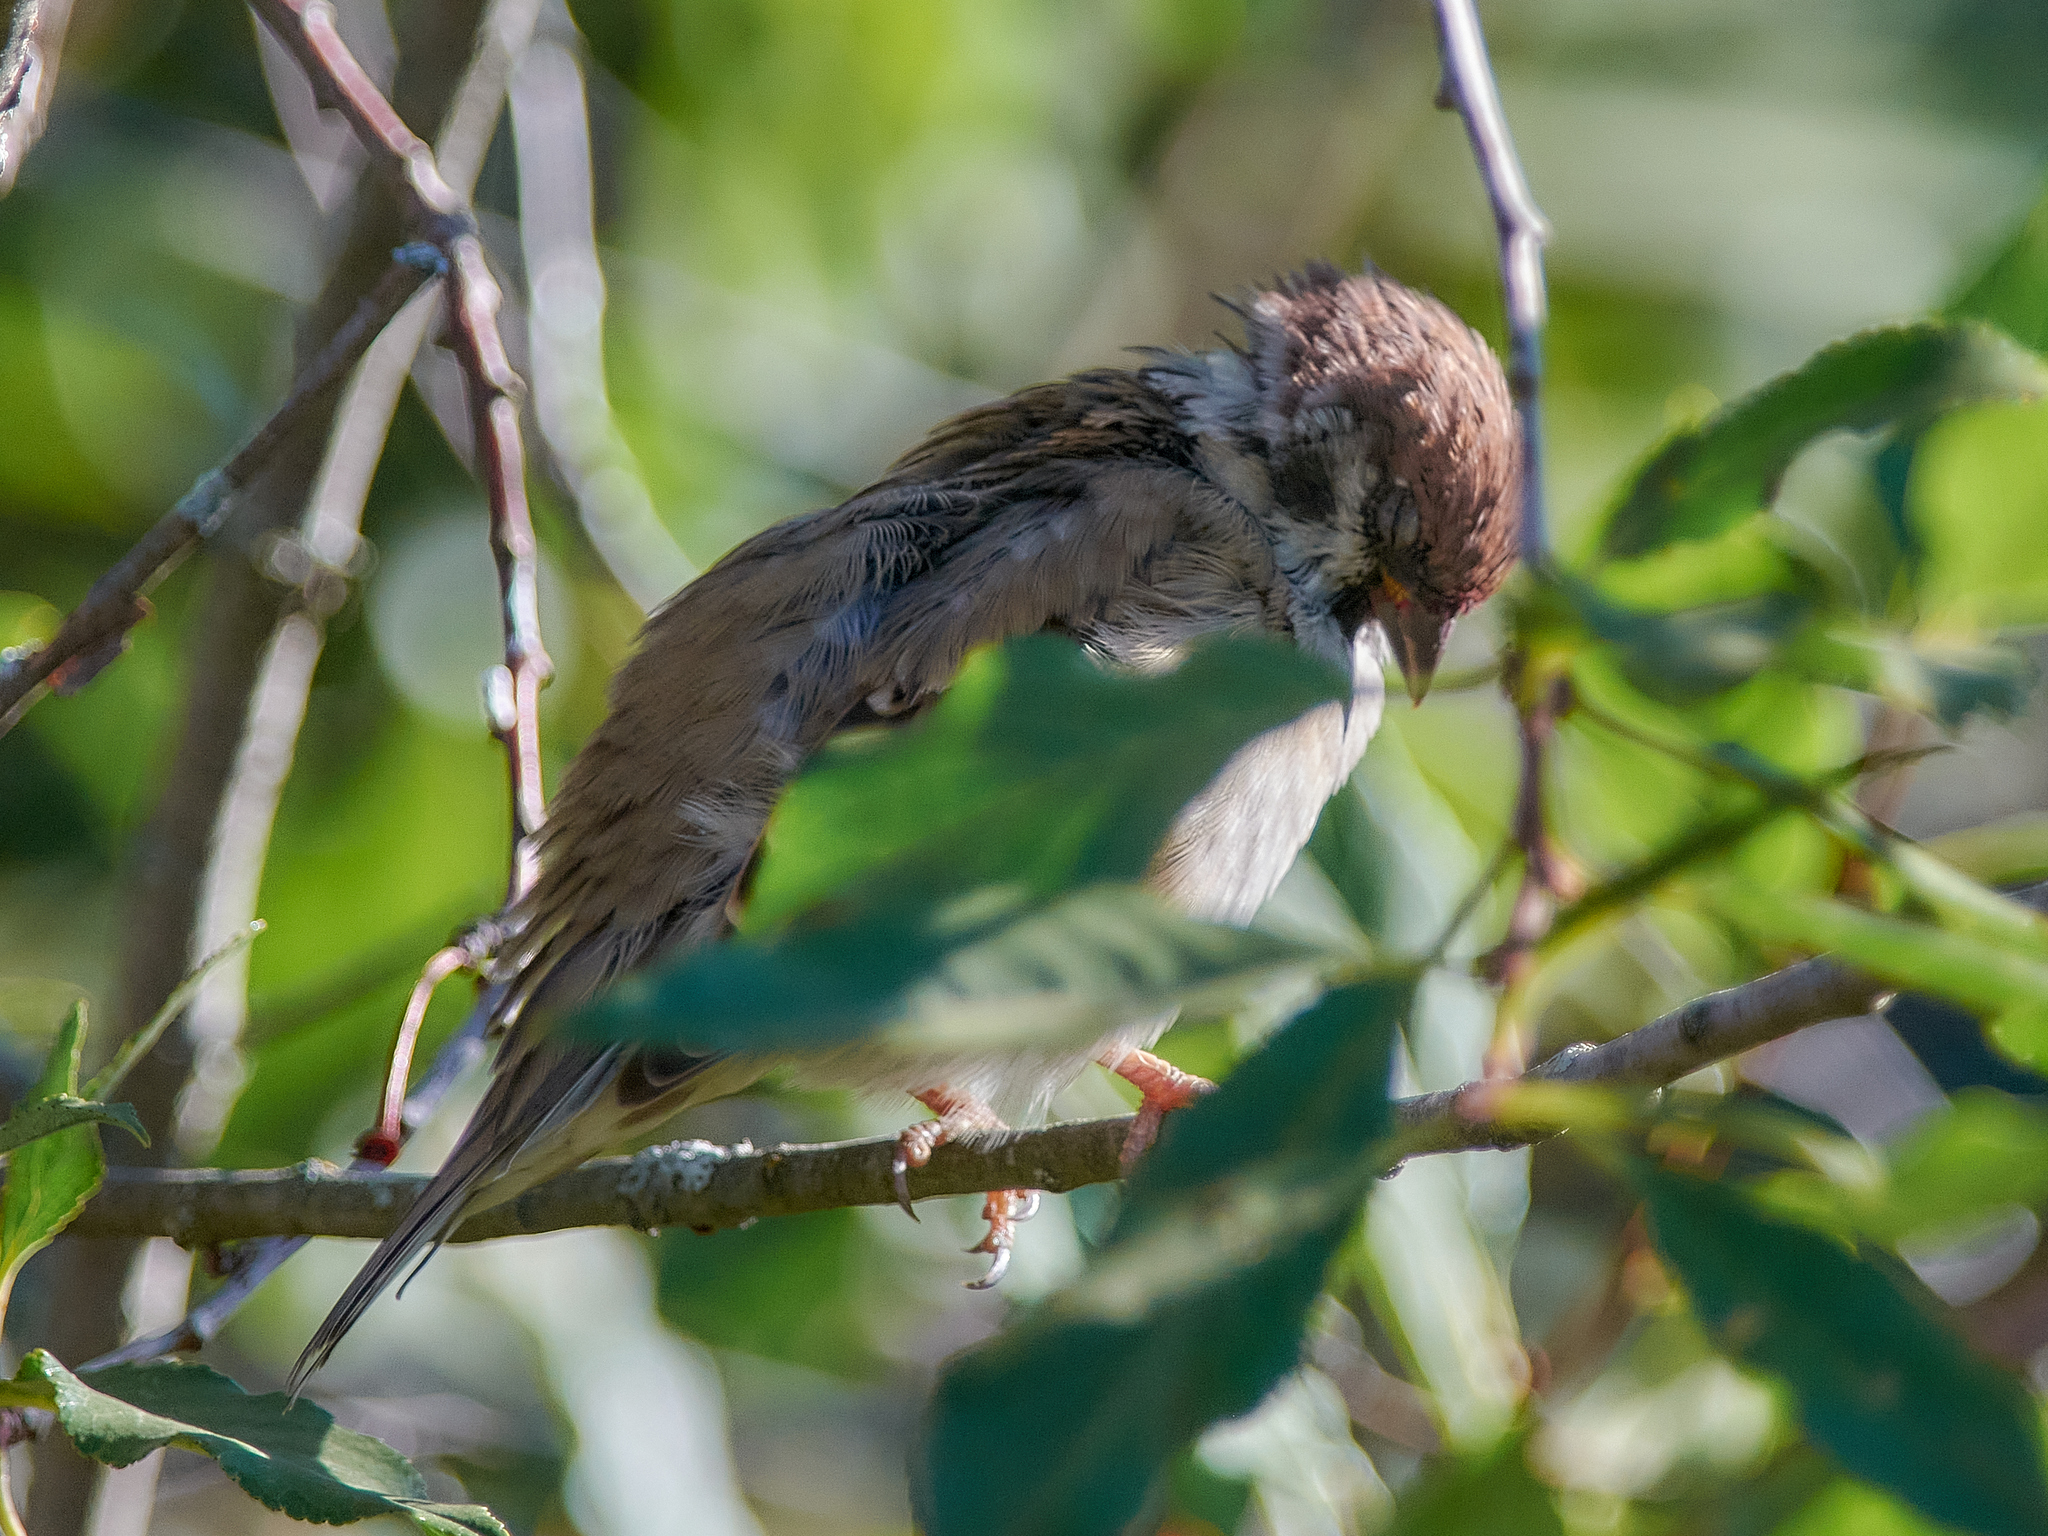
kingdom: Animalia
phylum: Chordata
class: Aves
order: Passeriformes
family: Passeridae
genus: Passer
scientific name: Passer montanus
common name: Eurasian tree sparrow
